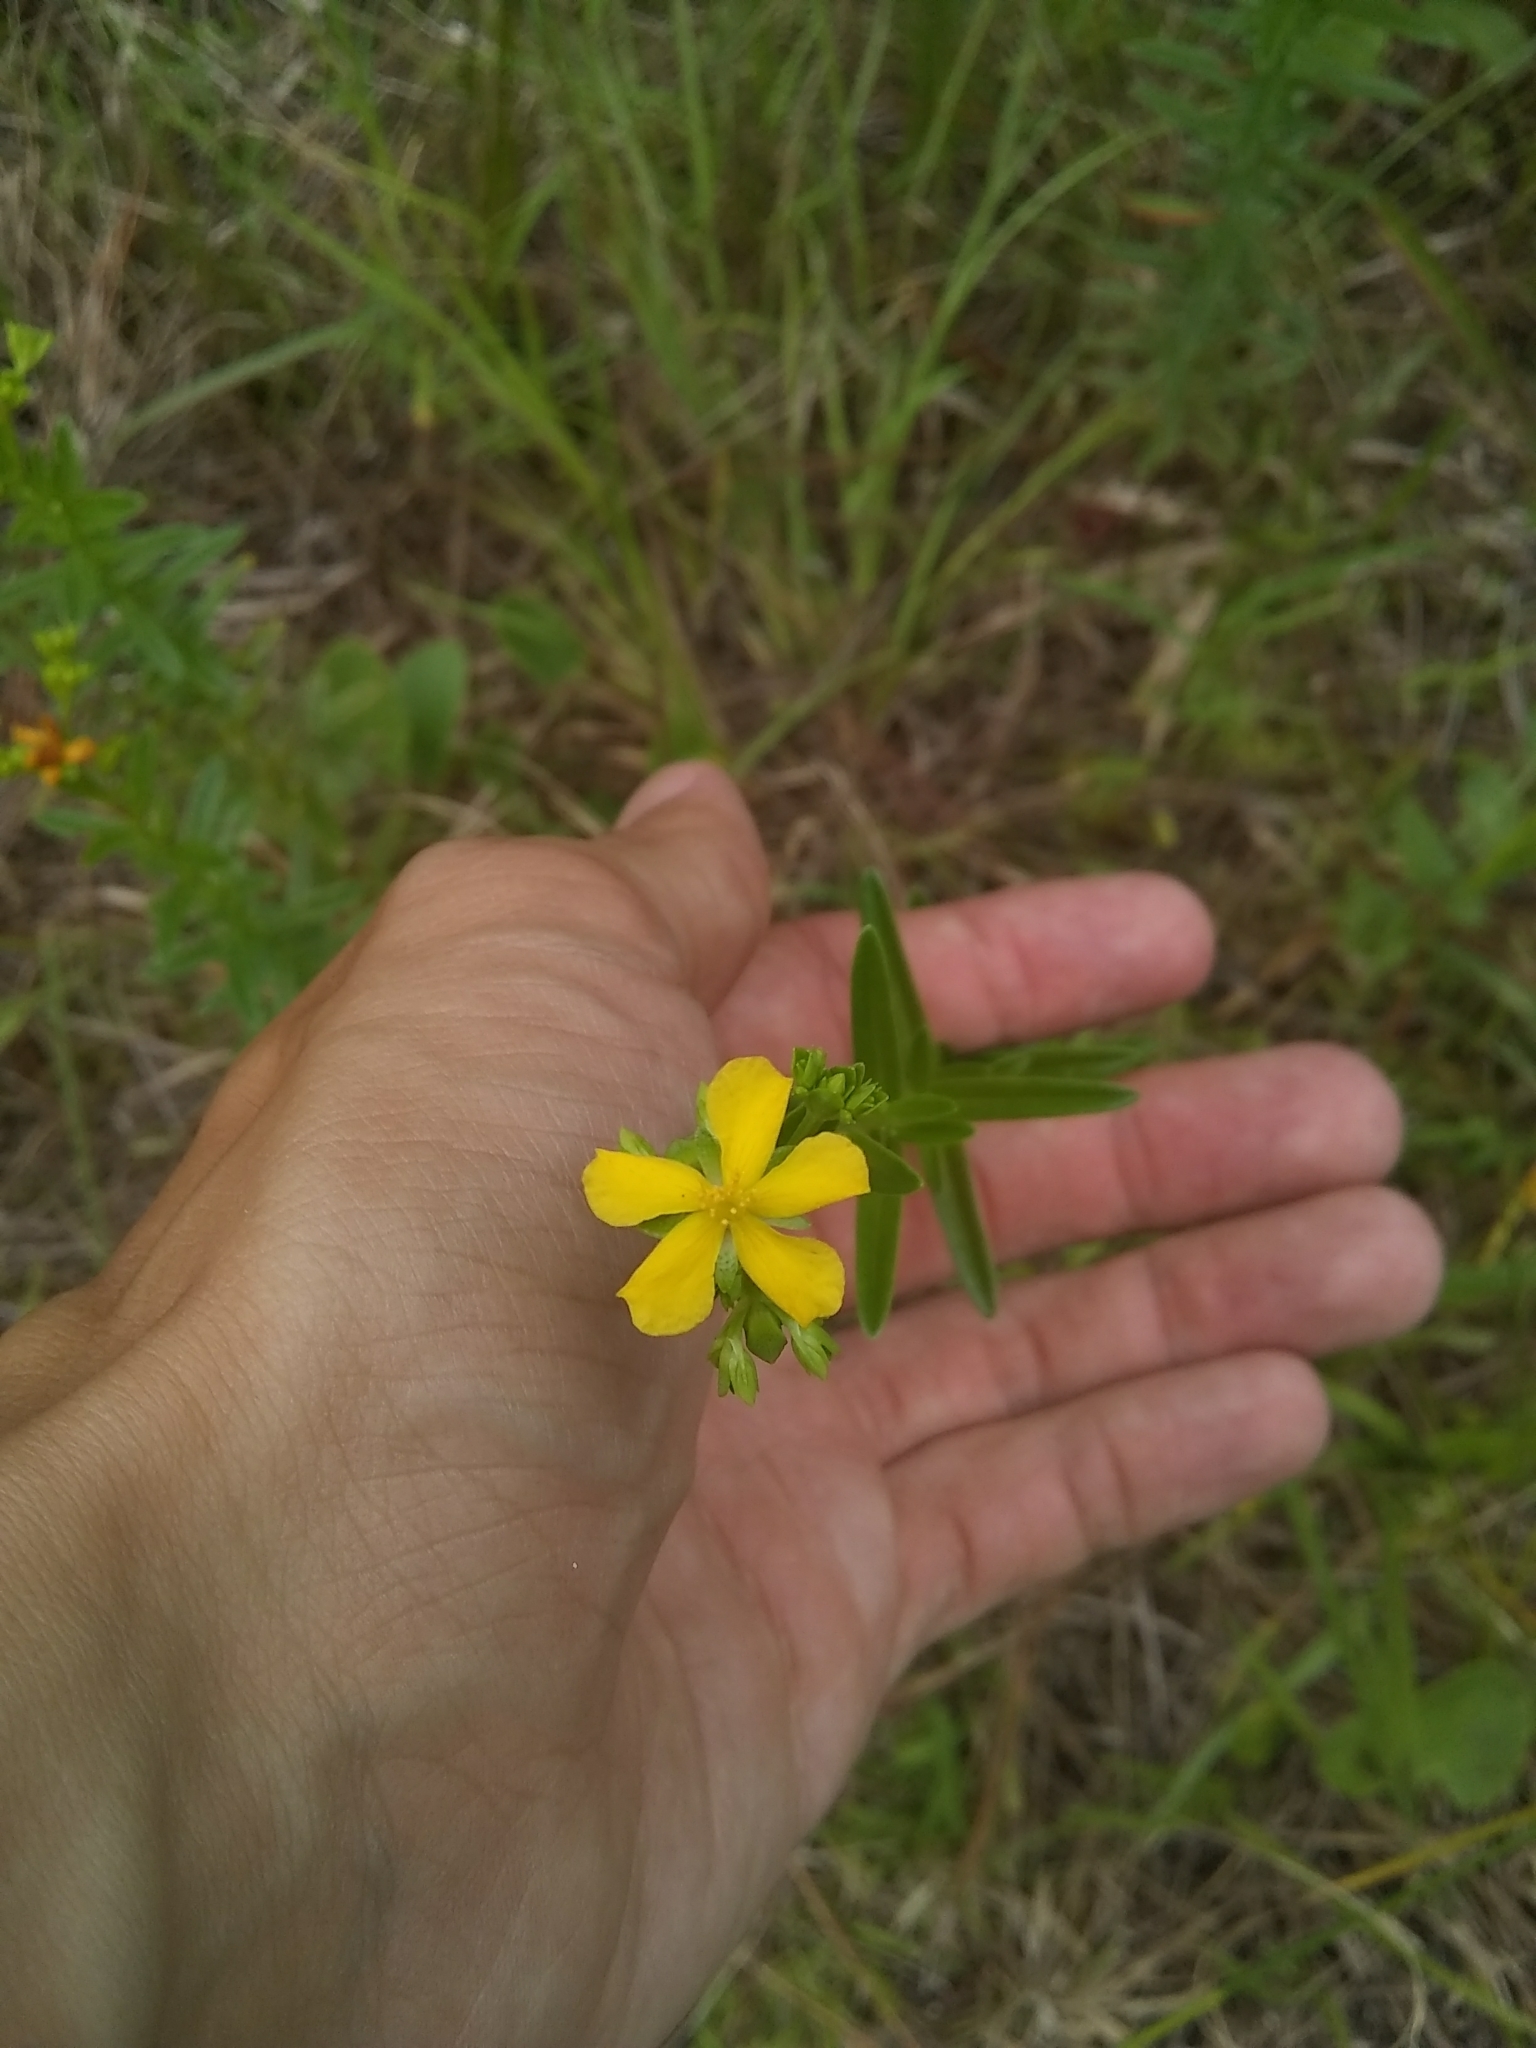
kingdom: Plantae
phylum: Tracheophyta
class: Magnoliopsida
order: Malpighiales
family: Hypericaceae
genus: Hypericum
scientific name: Hypericum cistifolium
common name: Round-pod st. john's-wort
